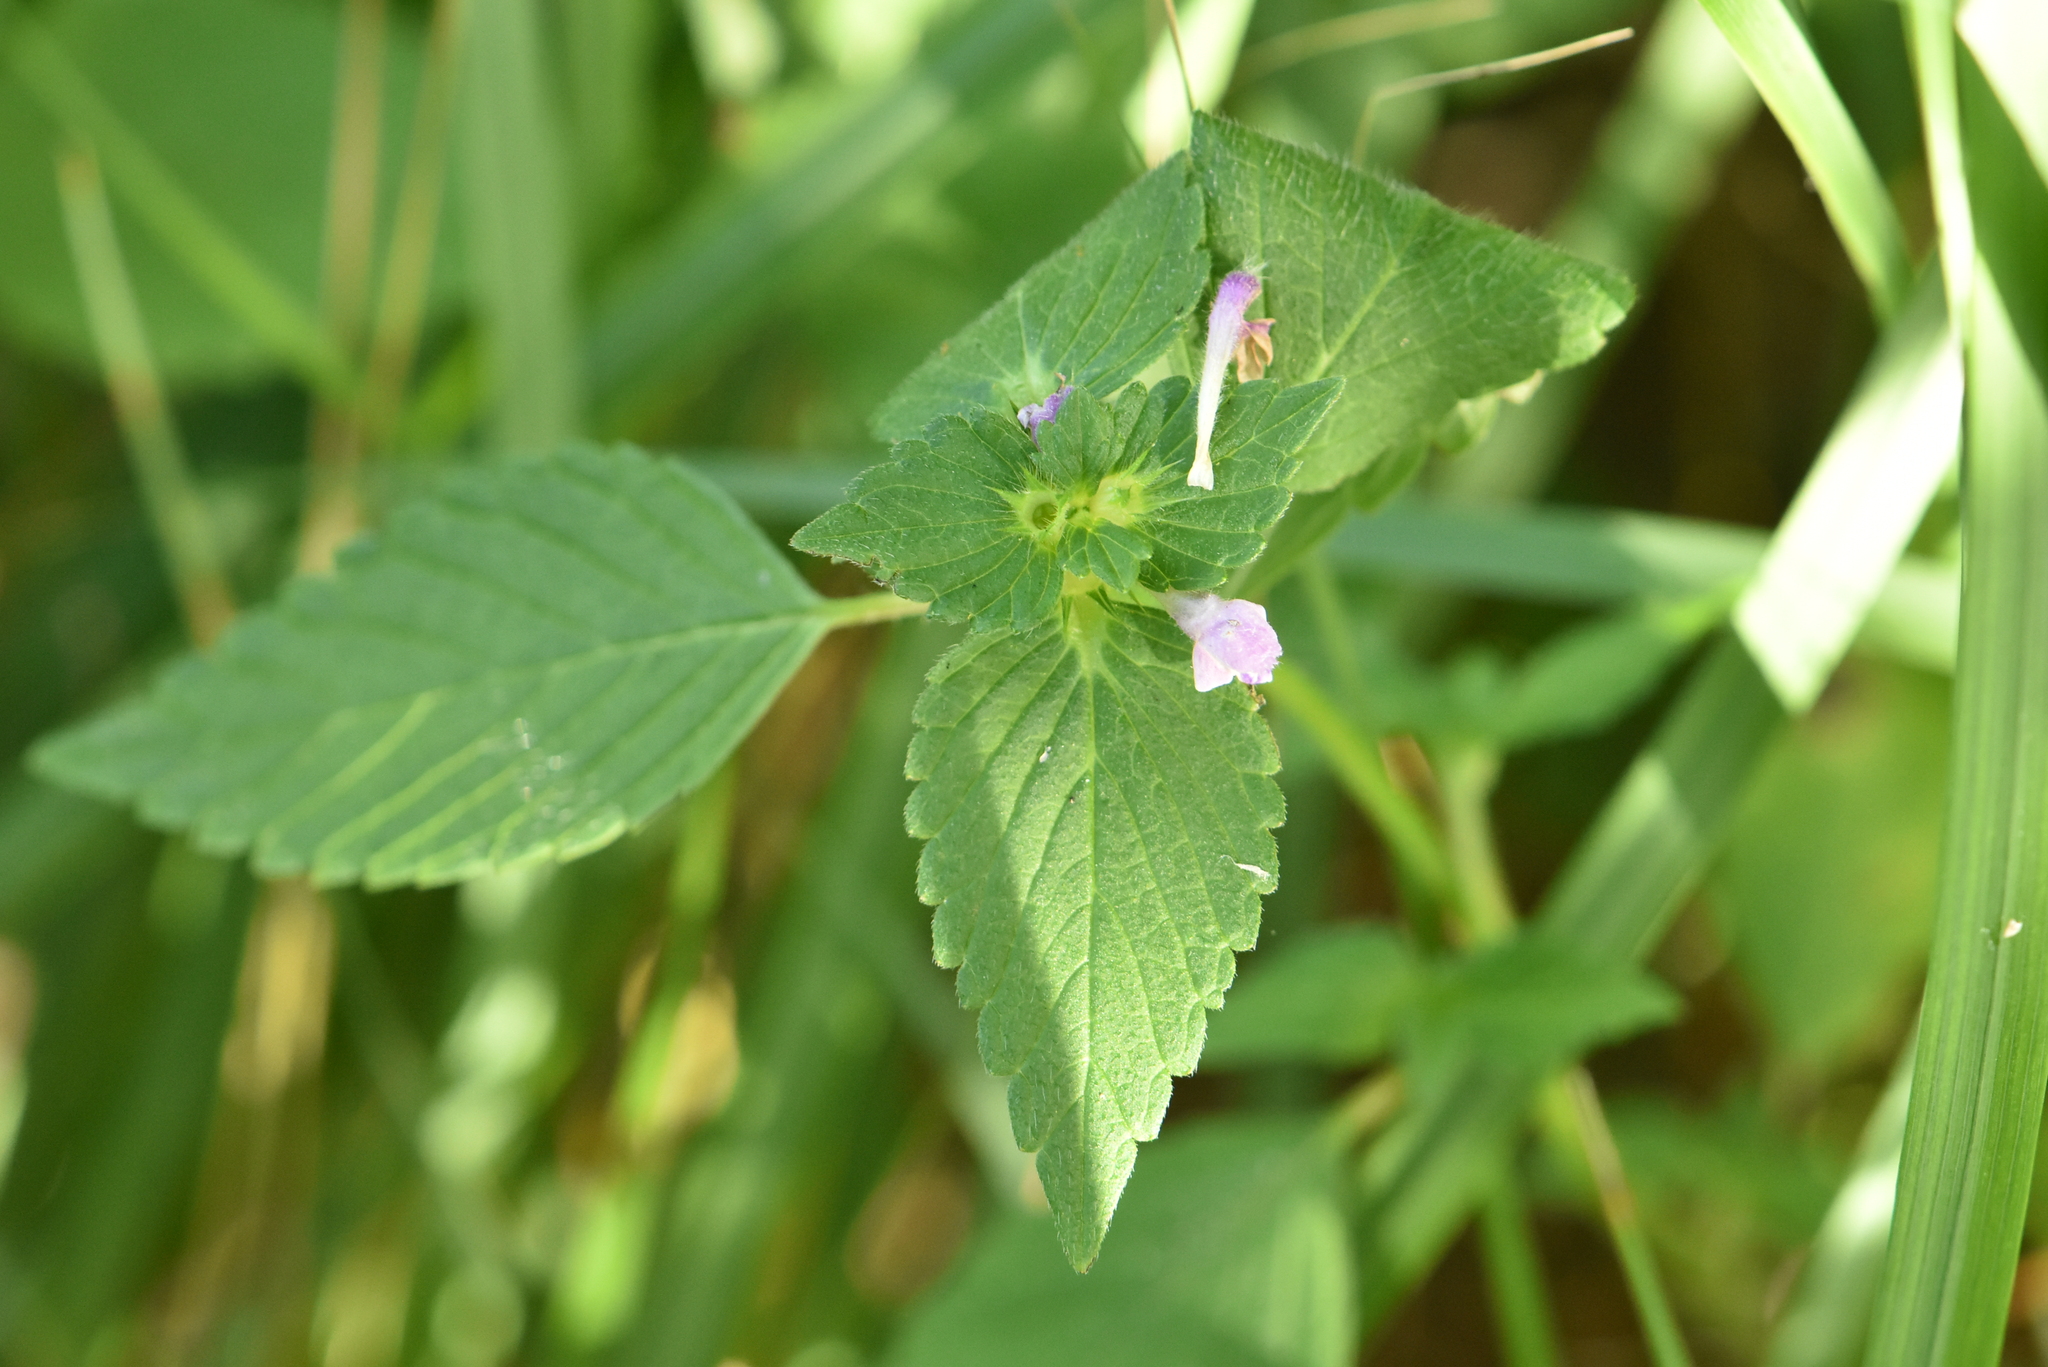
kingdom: Plantae
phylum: Tracheophyta
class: Magnoliopsida
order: Lamiales
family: Lamiaceae
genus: Galeopsis
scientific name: Galeopsis bifida
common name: Bifid hemp-nettle
